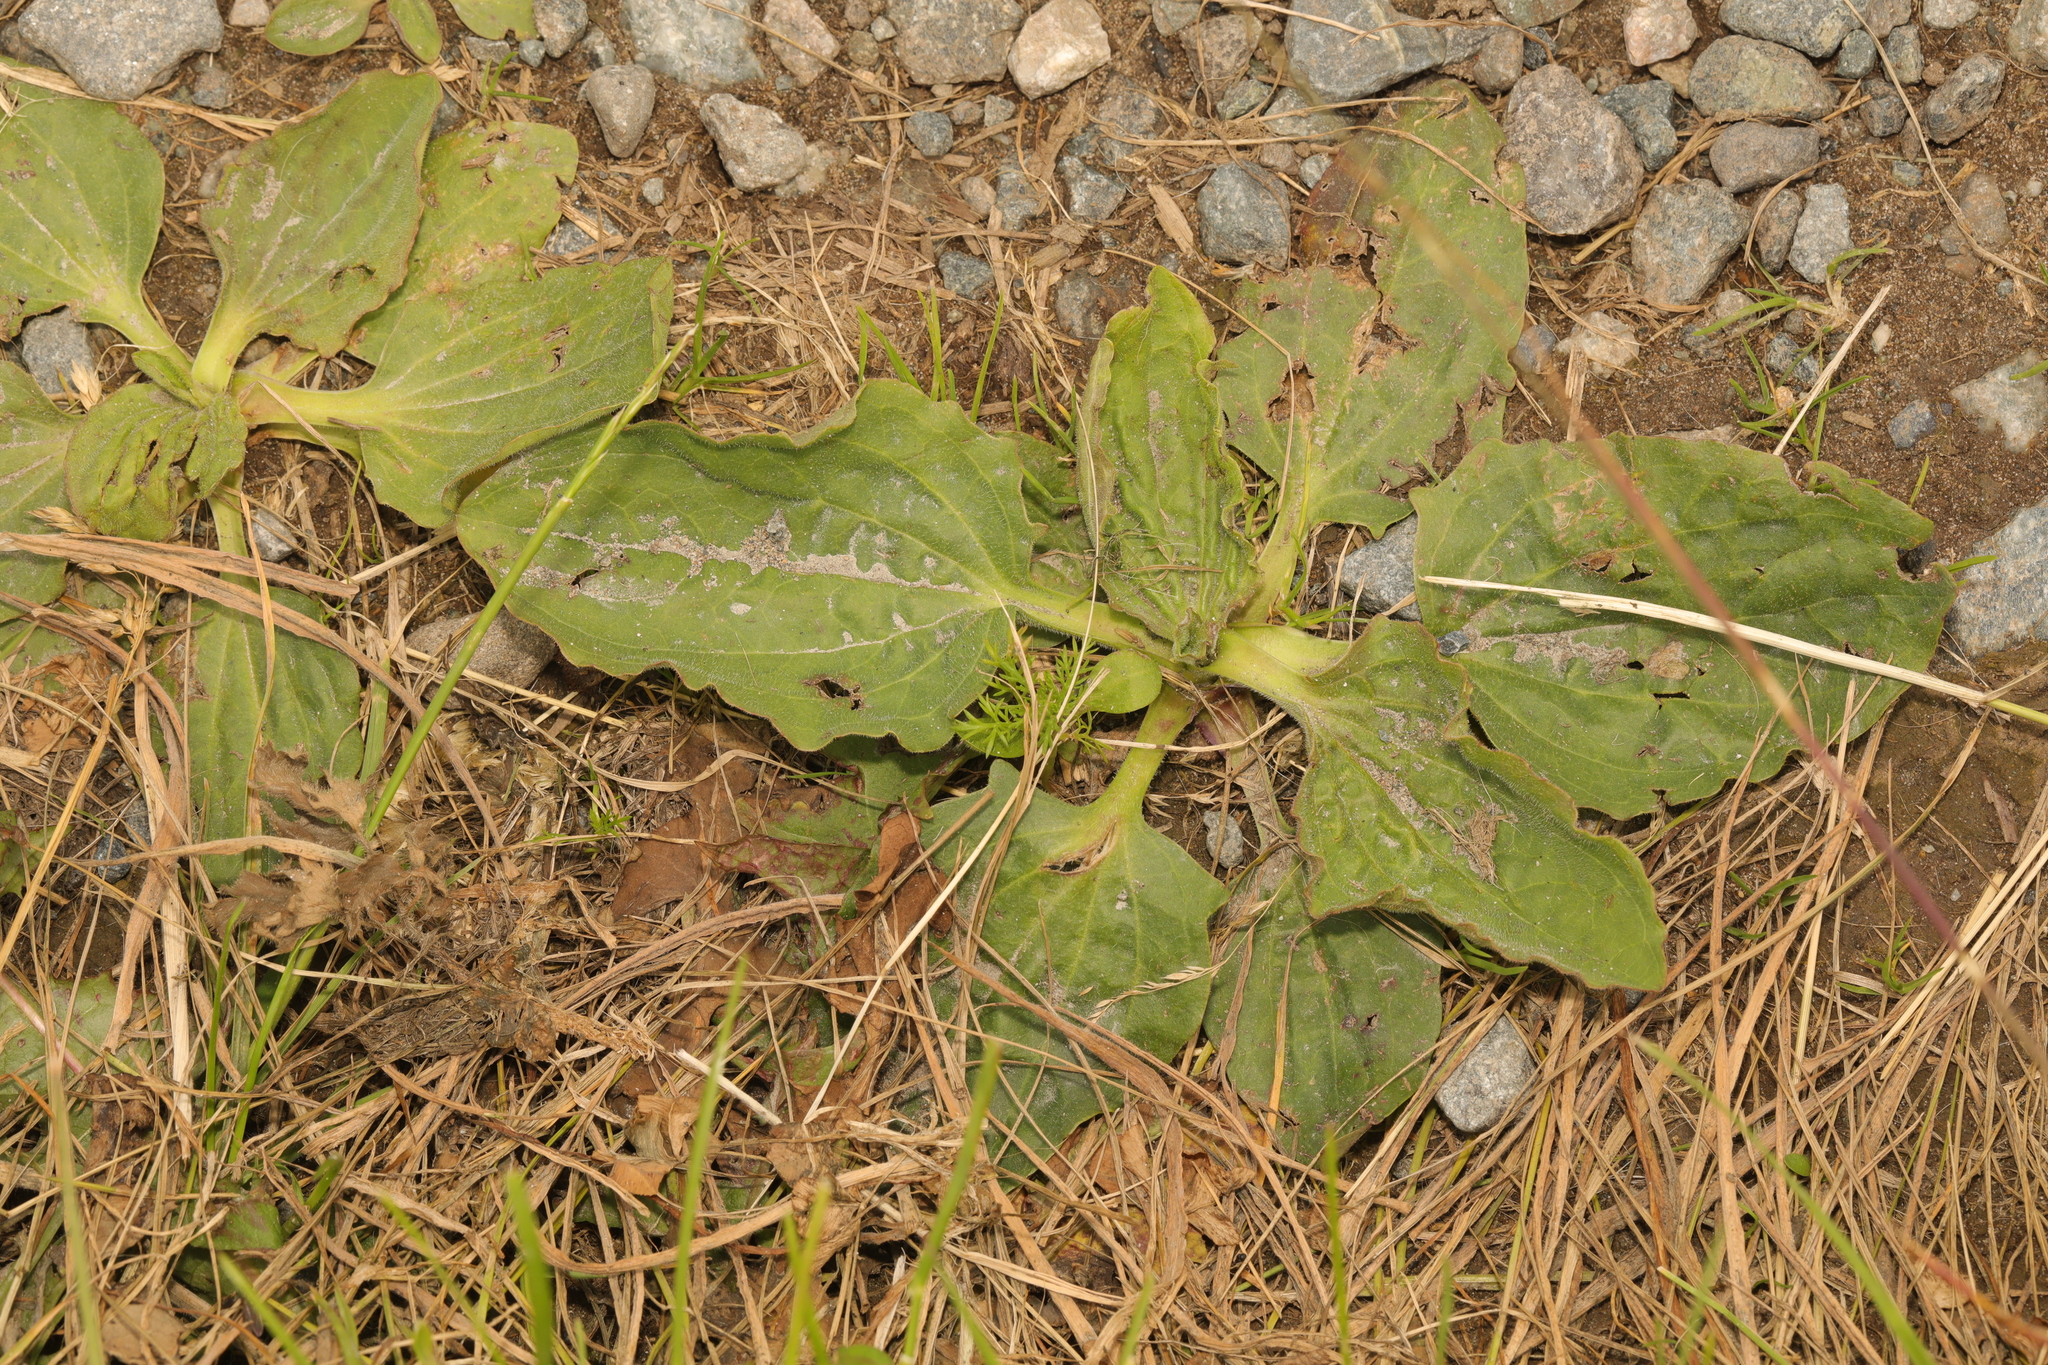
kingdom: Plantae
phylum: Tracheophyta
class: Magnoliopsida
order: Lamiales
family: Plantaginaceae
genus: Plantago
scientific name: Plantago major
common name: Common plantain
